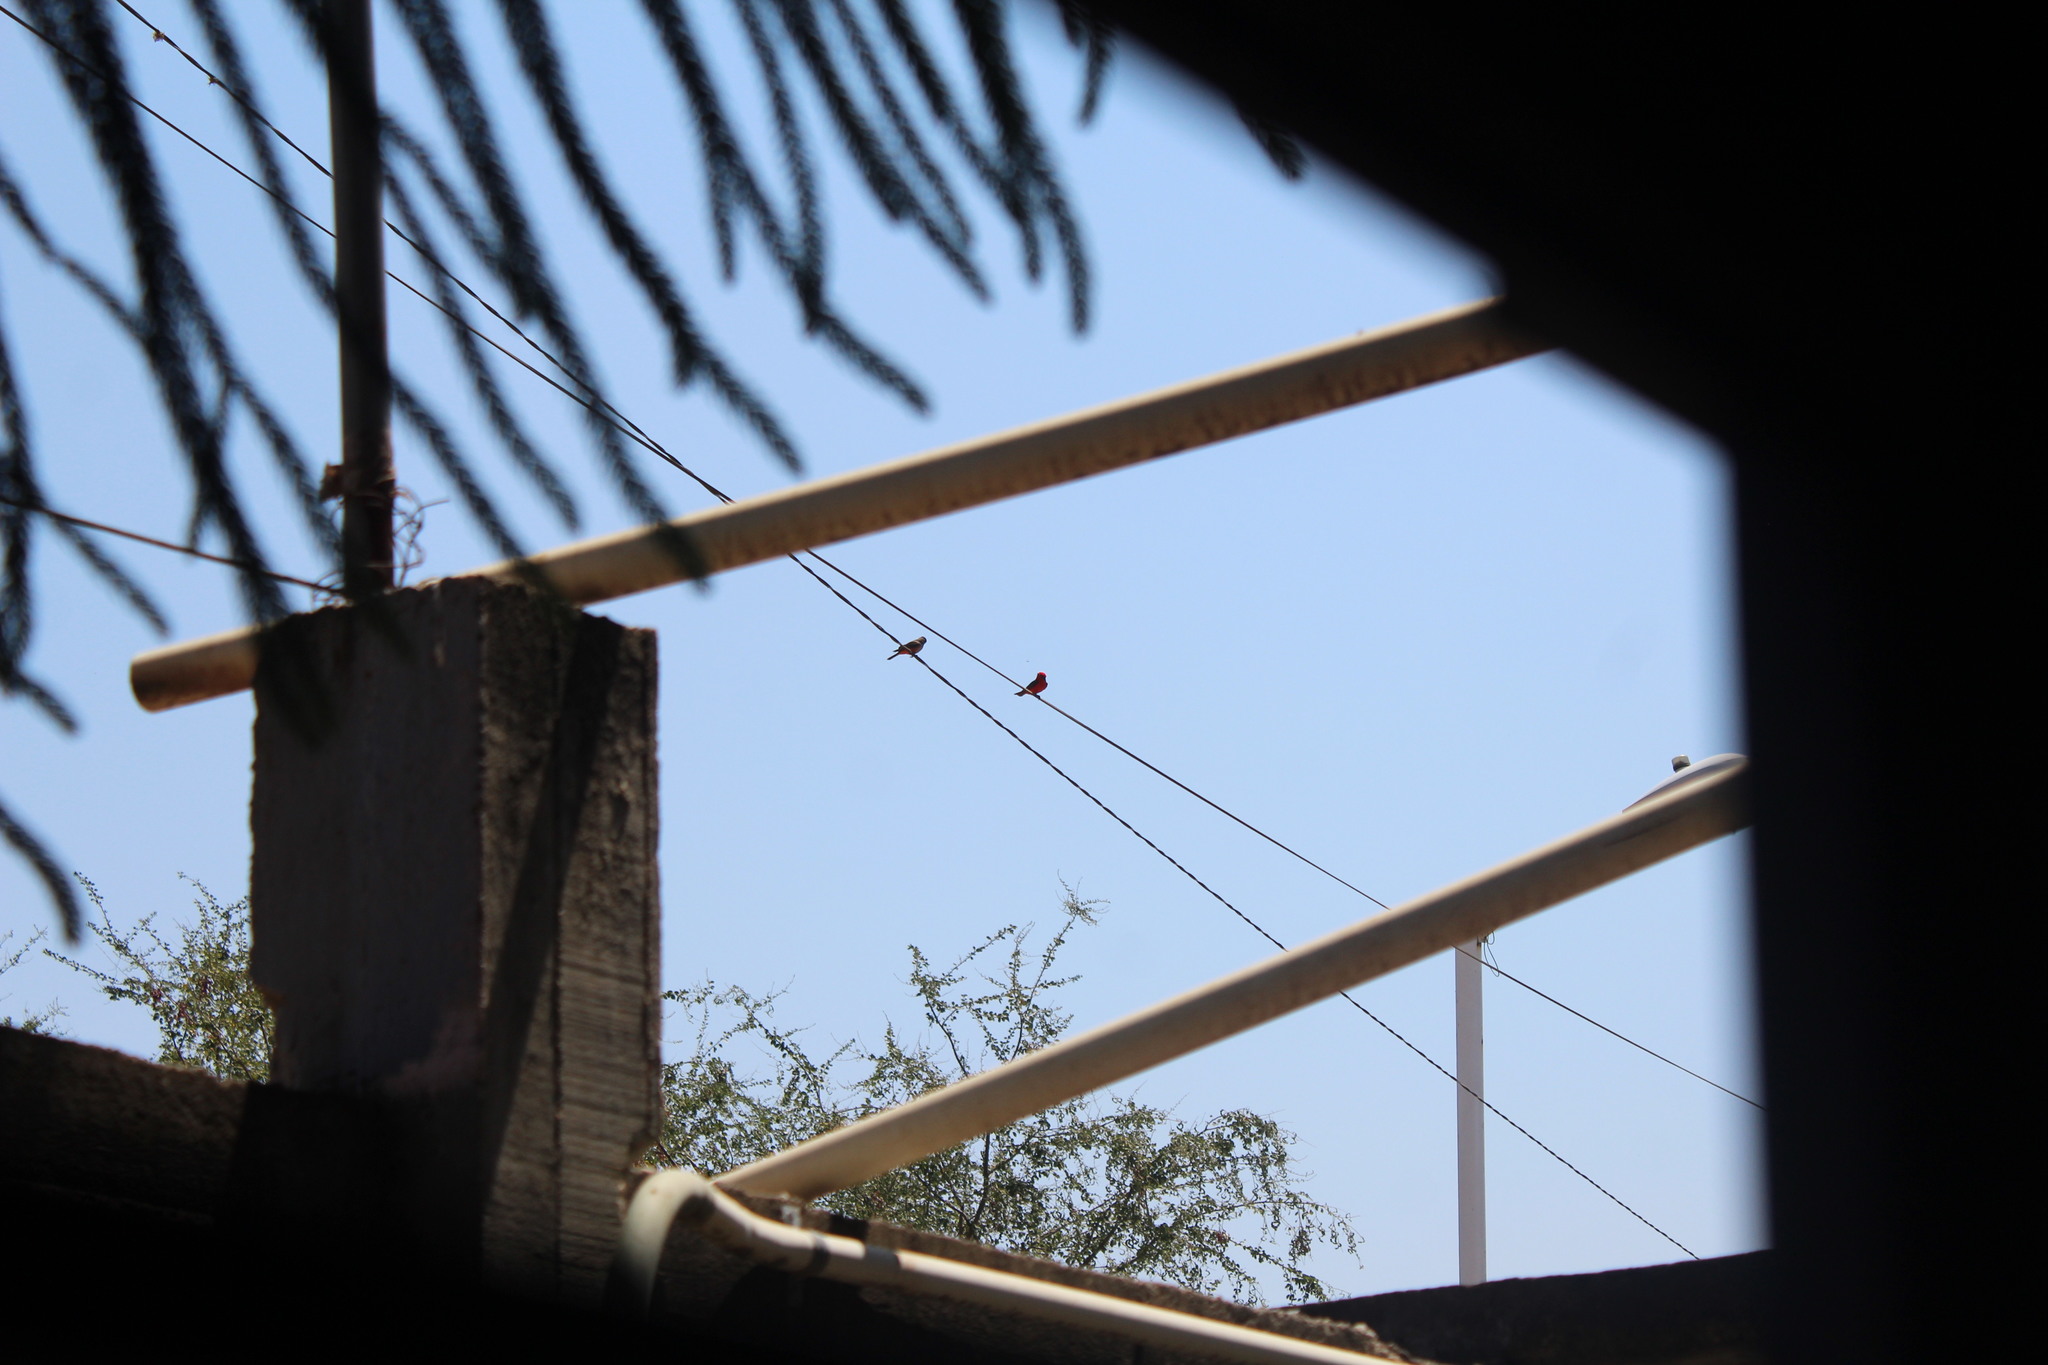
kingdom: Animalia
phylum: Chordata
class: Aves
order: Passeriformes
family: Tyrannidae
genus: Pyrocephalus
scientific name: Pyrocephalus rubinus
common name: Vermilion flycatcher
